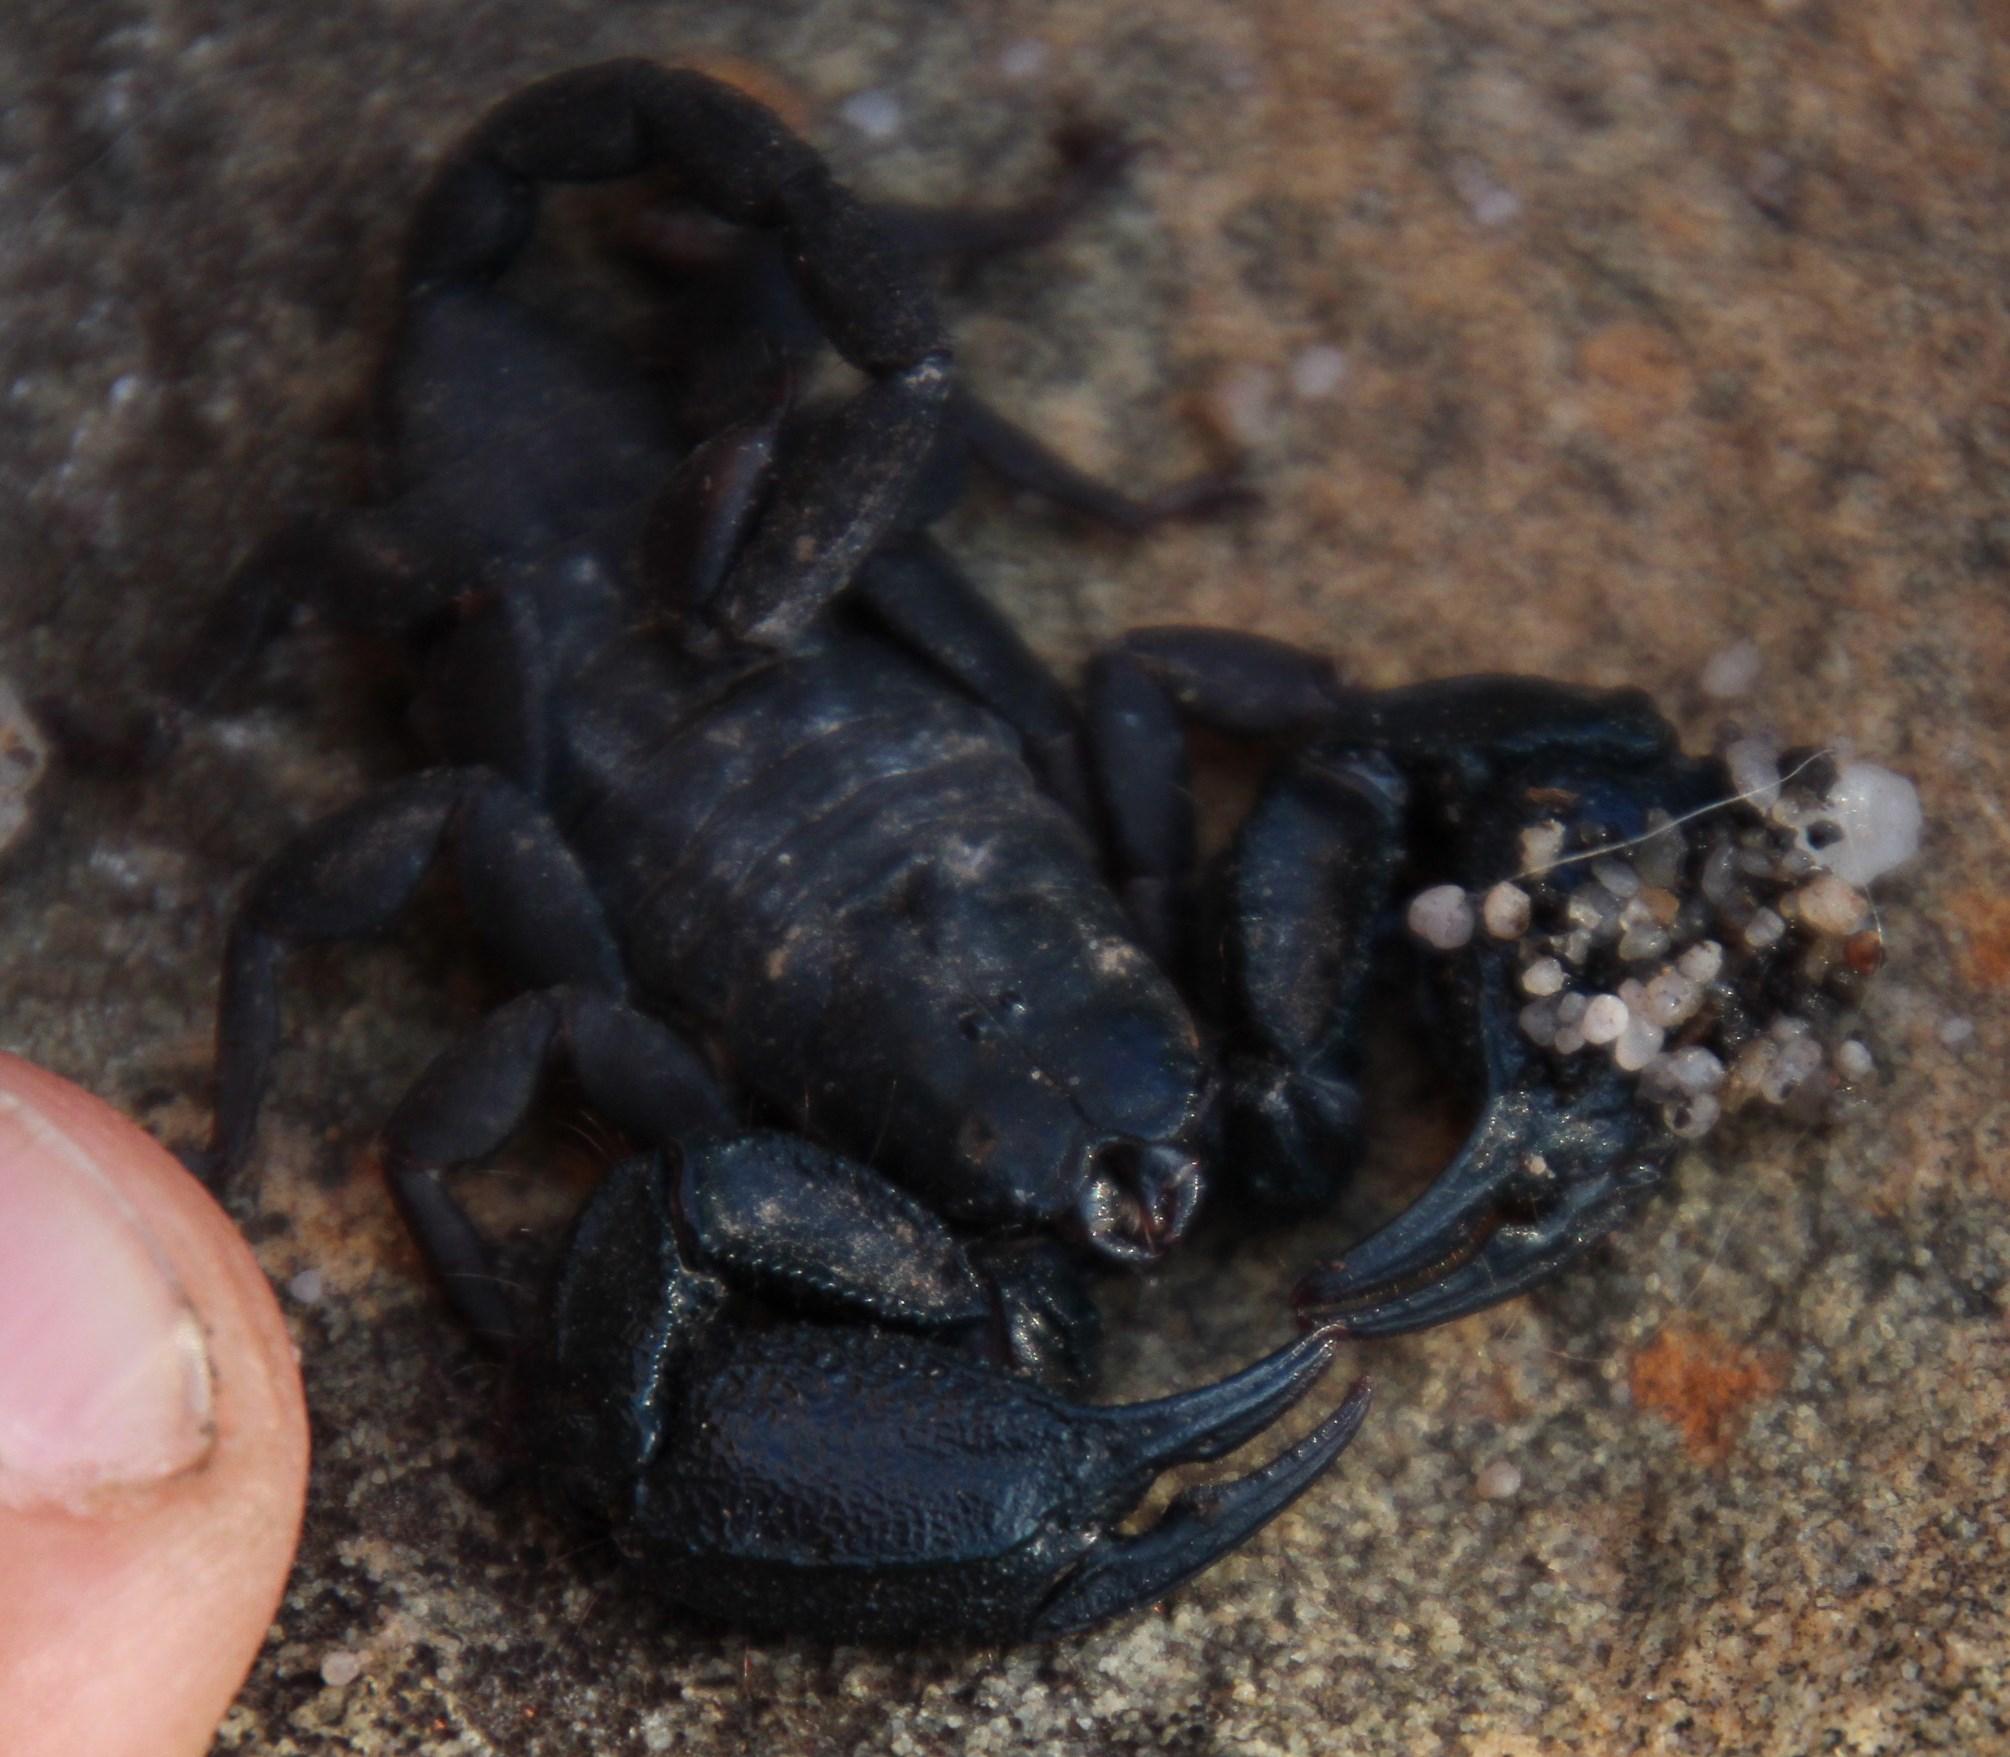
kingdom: Animalia
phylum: Arthropoda
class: Arachnida
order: Scorpiones
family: Hormuridae
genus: Opisthacanthus
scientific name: Opisthacanthus capensis
